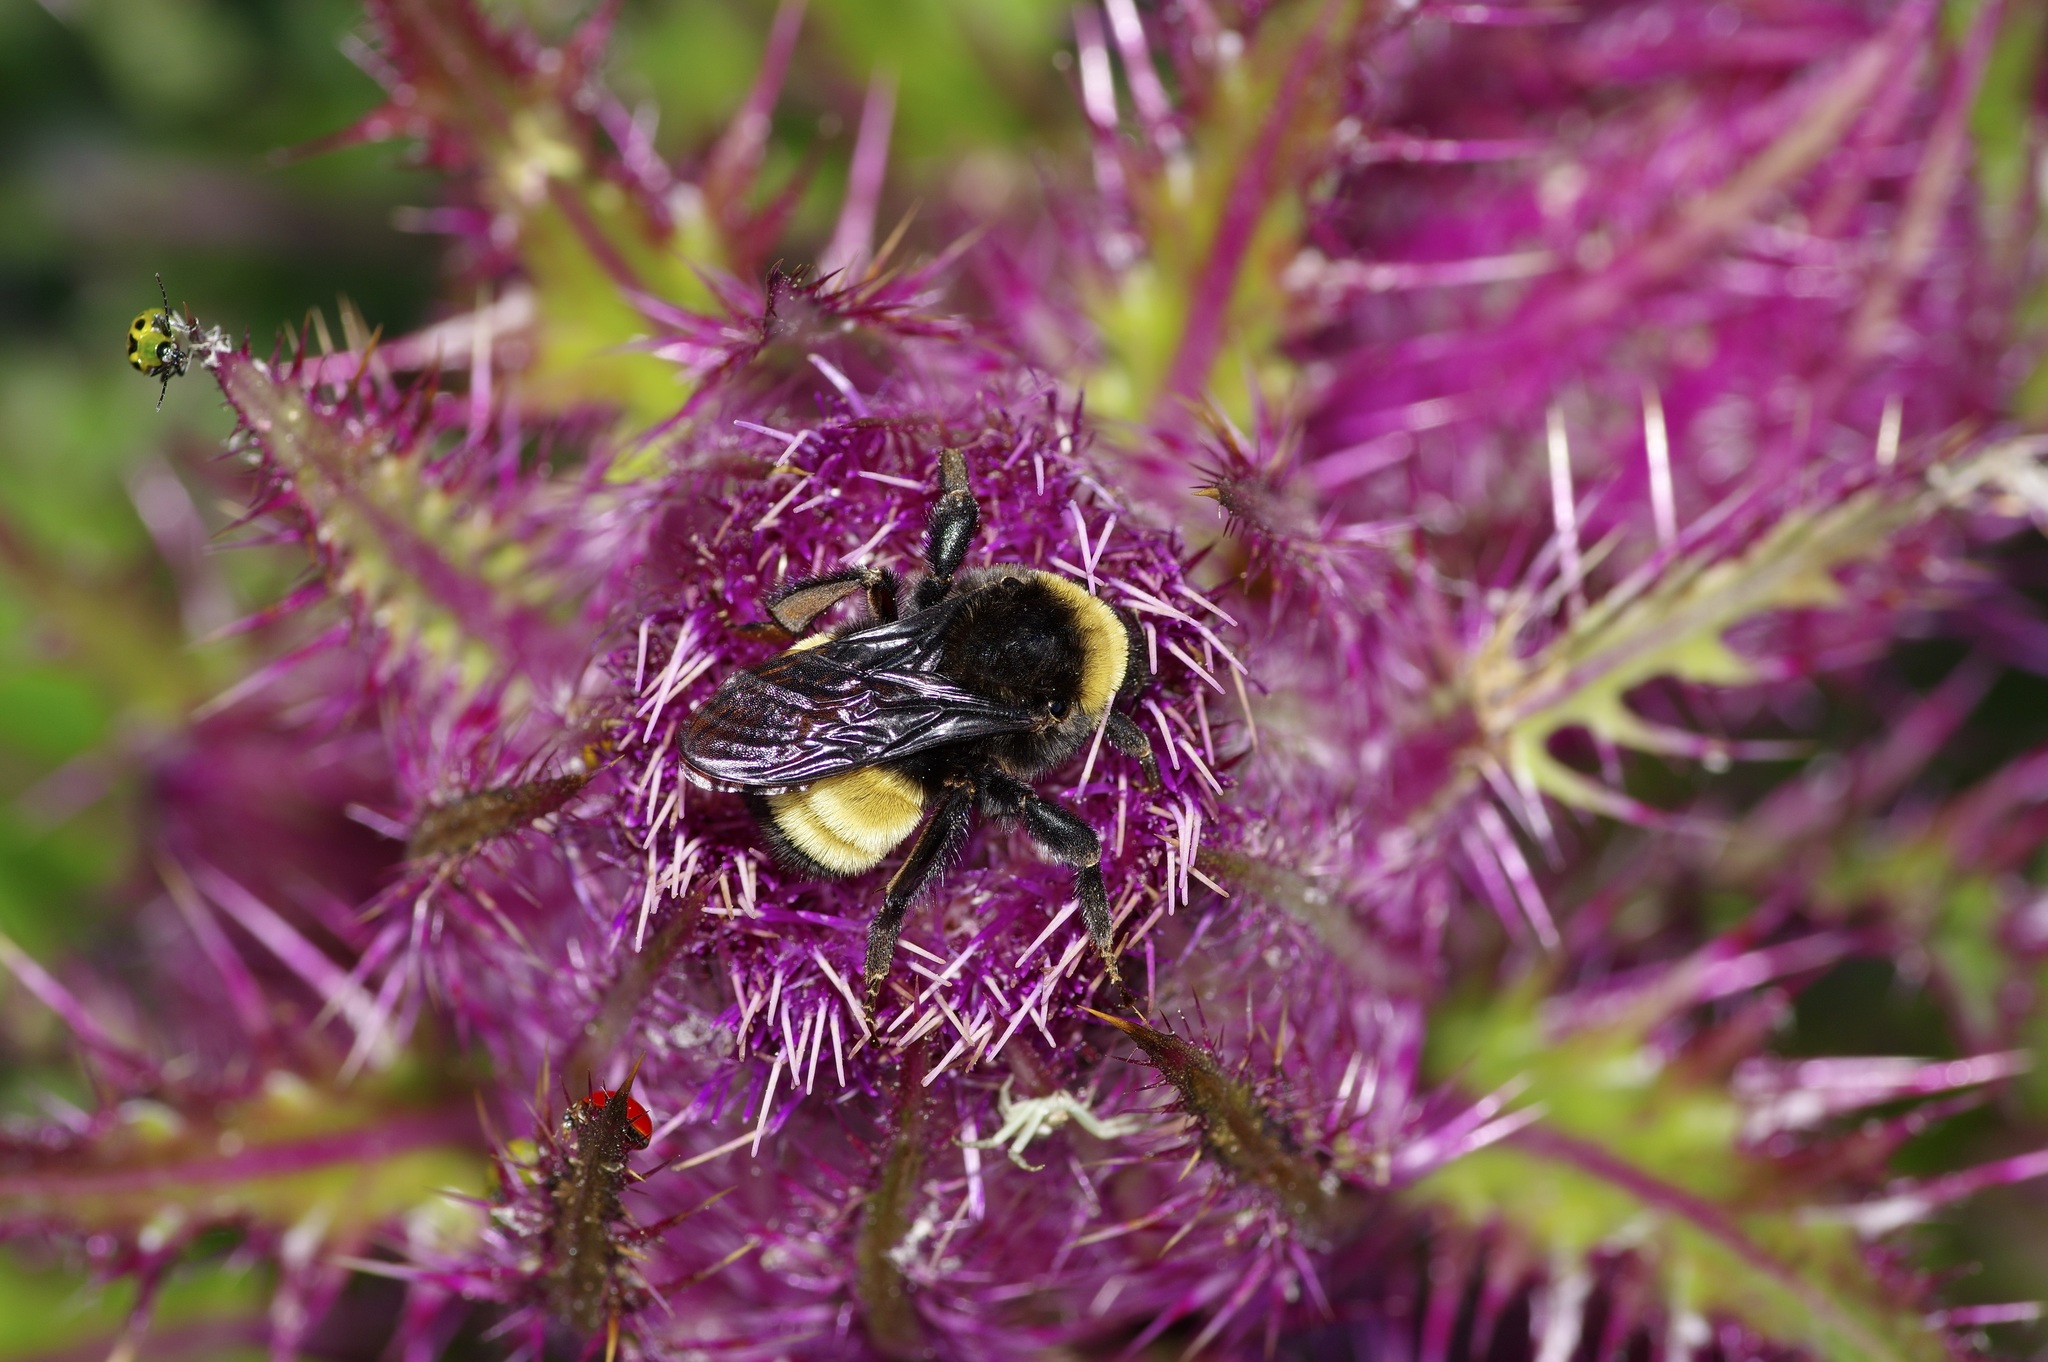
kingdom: Animalia
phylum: Arthropoda
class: Insecta
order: Hymenoptera
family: Apidae
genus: Bombus
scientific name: Bombus pensylvanicus
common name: Bumble bee
